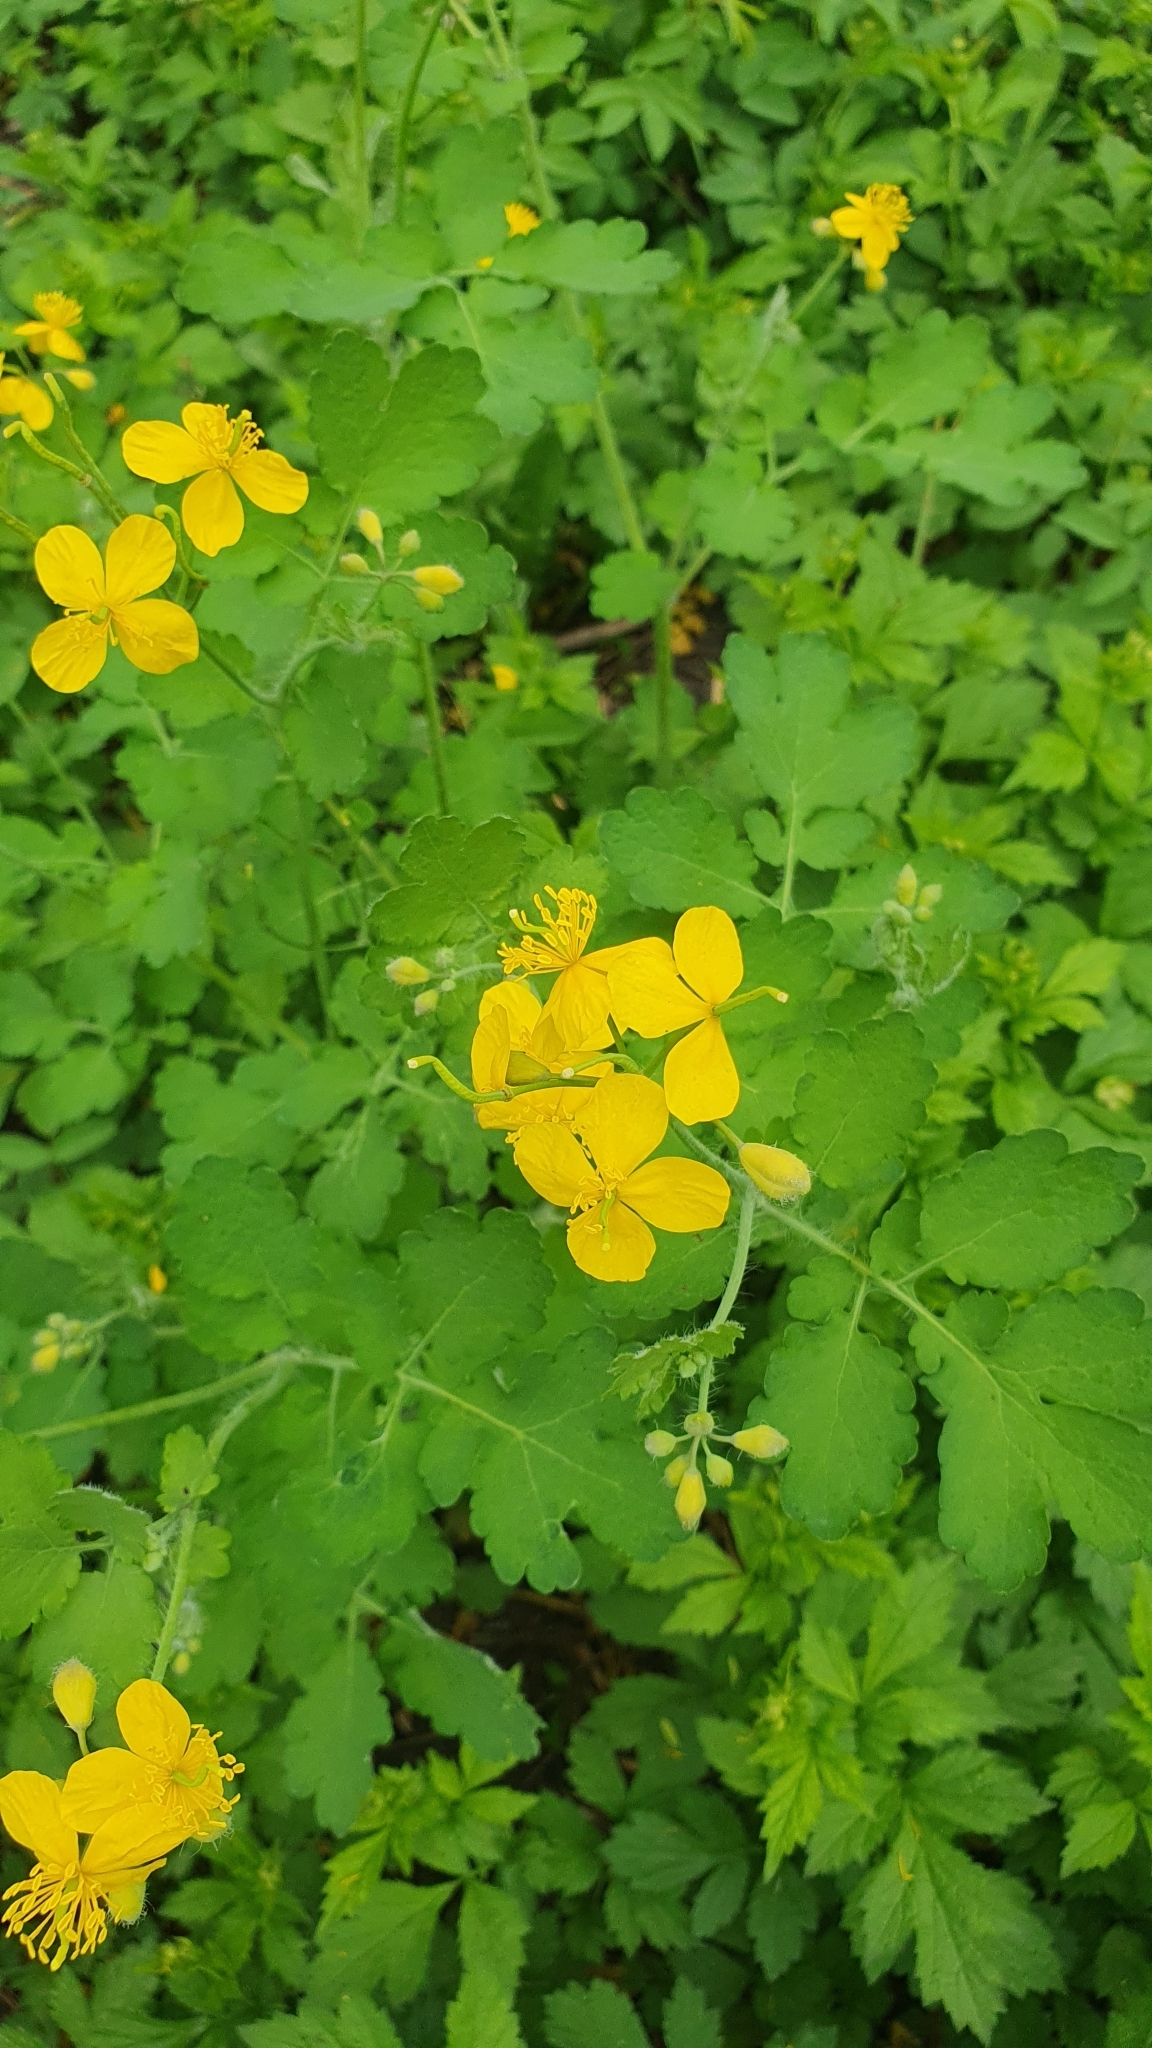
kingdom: Plantae
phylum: Tracheophyta
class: Magnoliopsida
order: Ranunculales
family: Papaveraceae
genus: Chelidonium
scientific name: Chelidonium majus
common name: Greater celandine
